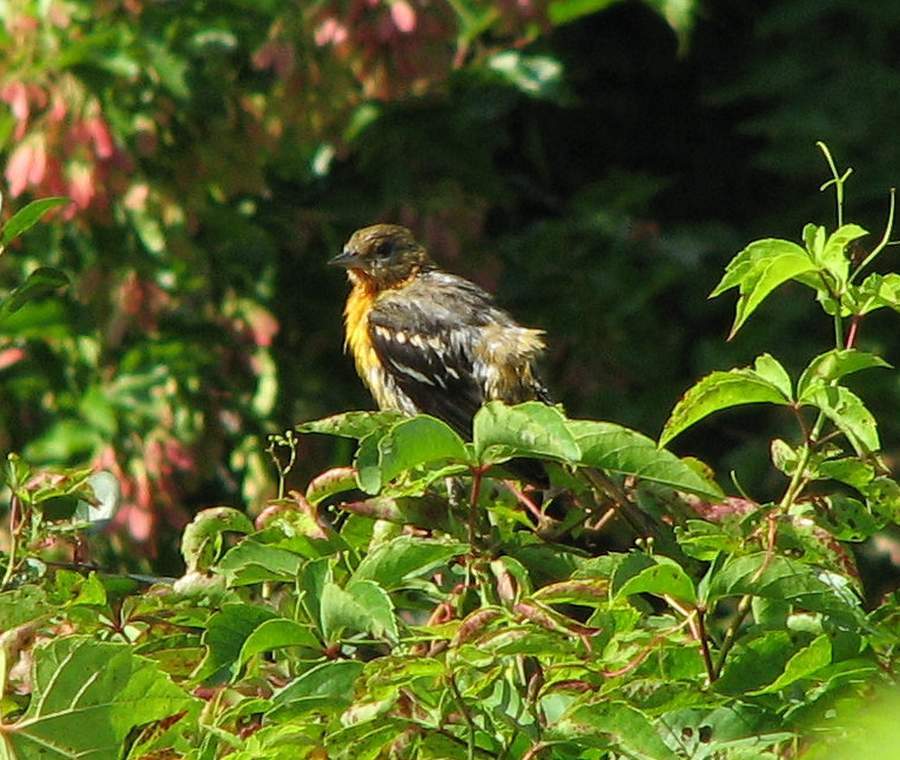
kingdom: Animalia
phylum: Chordata
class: Aves
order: Passeriformes
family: Icteridae
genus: Icterus
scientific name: Icterus galbula
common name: Baltimore oriole
